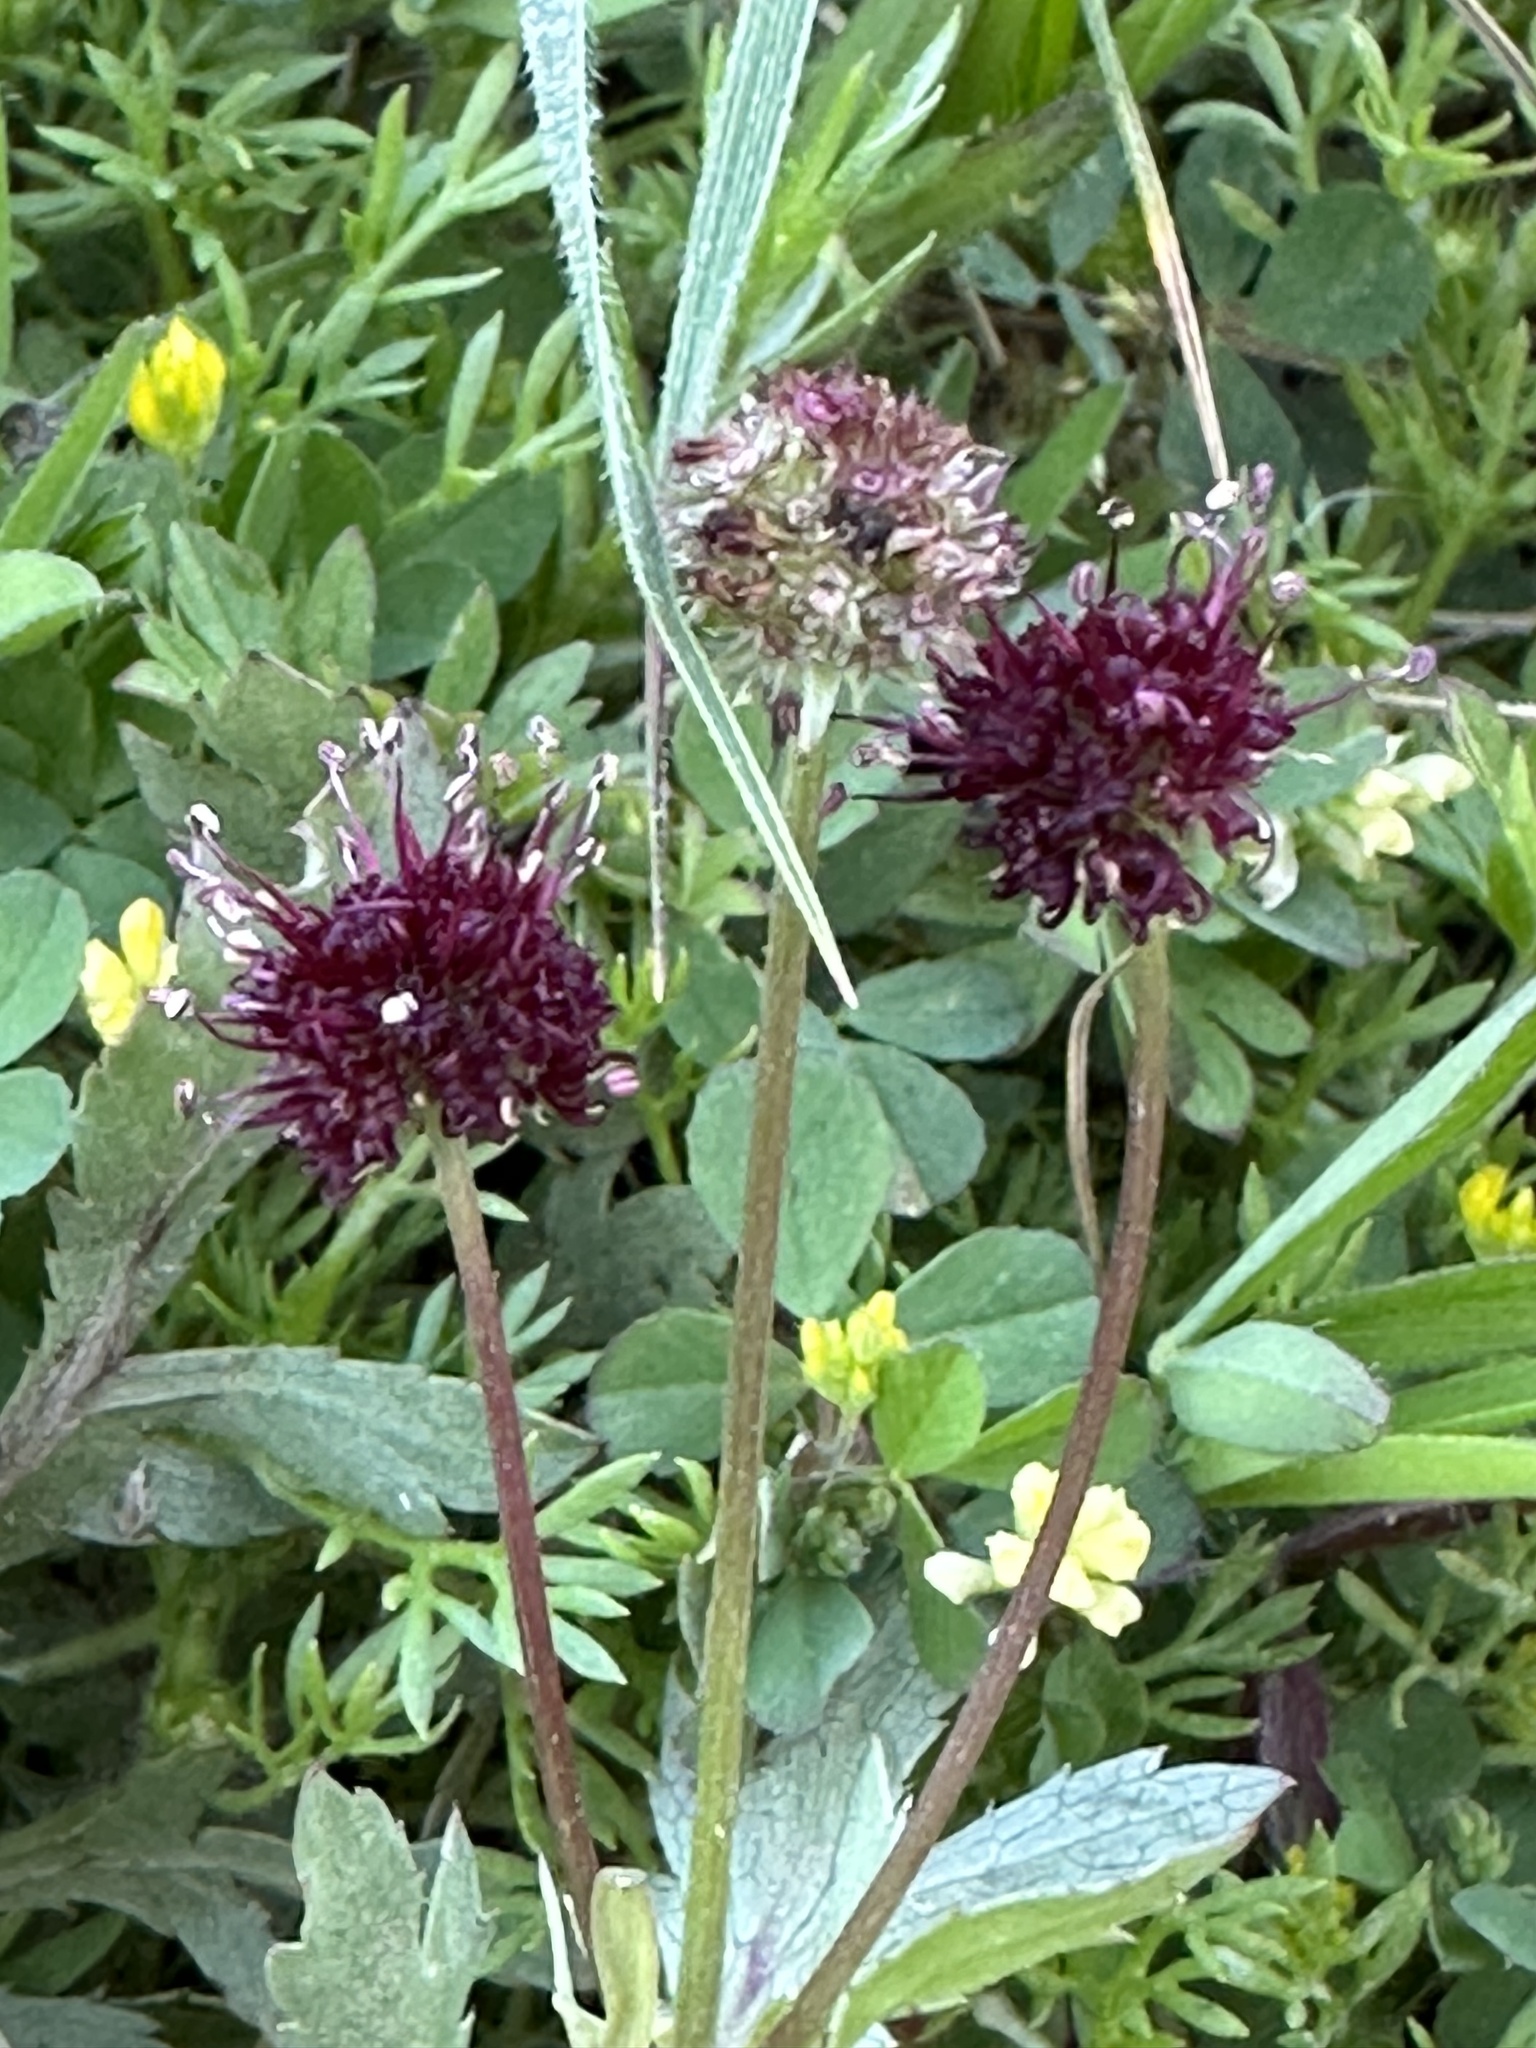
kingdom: Plantae
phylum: Tracheophyta
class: Magnoliopsida
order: Apiales
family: Apiaceae
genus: Sanicula
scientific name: Sanicula bipinnatifida
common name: Shoe-buttons
